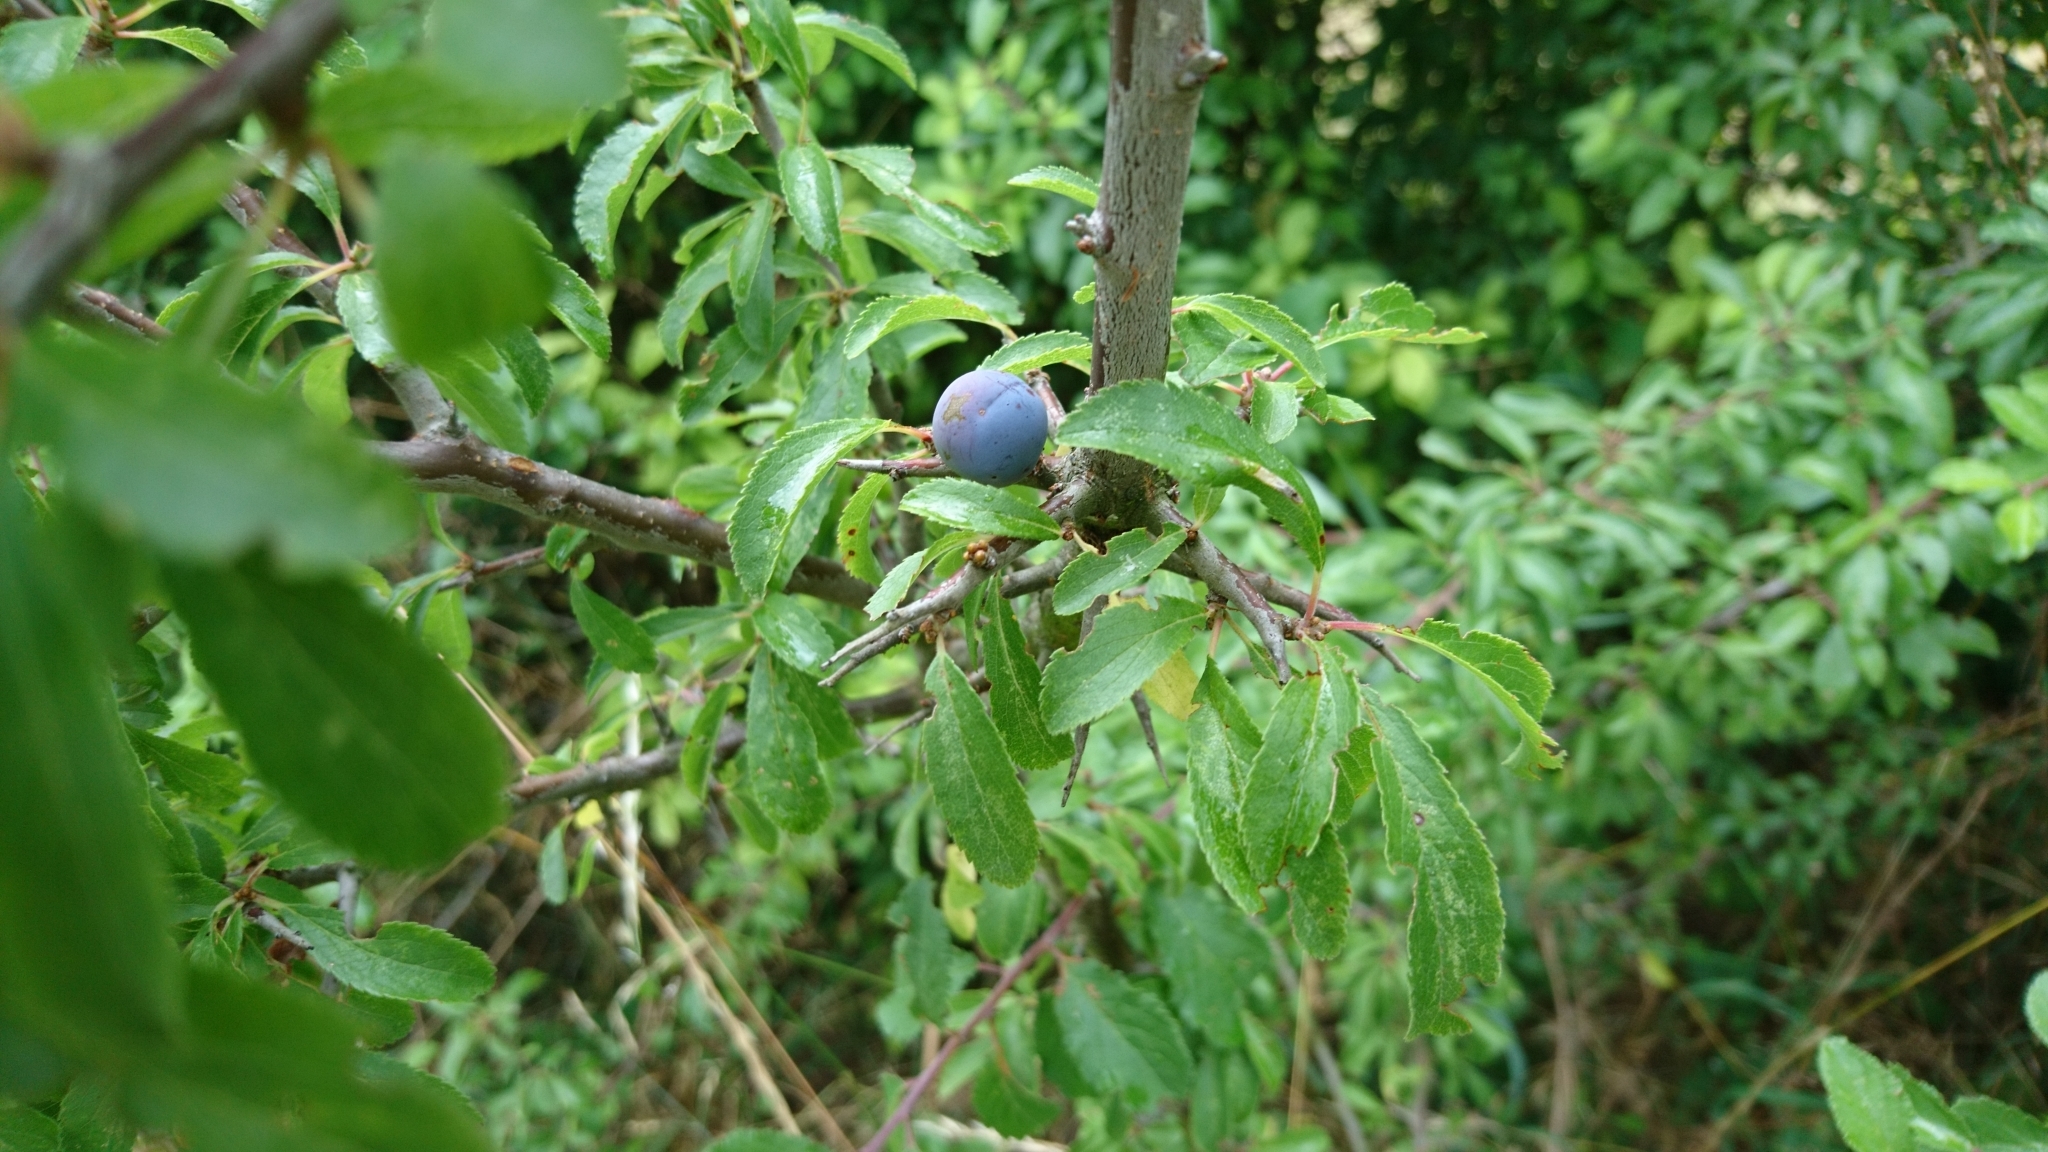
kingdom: Plantae
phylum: Tracheophyta
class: Magnoliopsida
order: Rosales
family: Rosaceae
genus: Prunus
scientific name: Prunus spinosa
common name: Blackthorn
